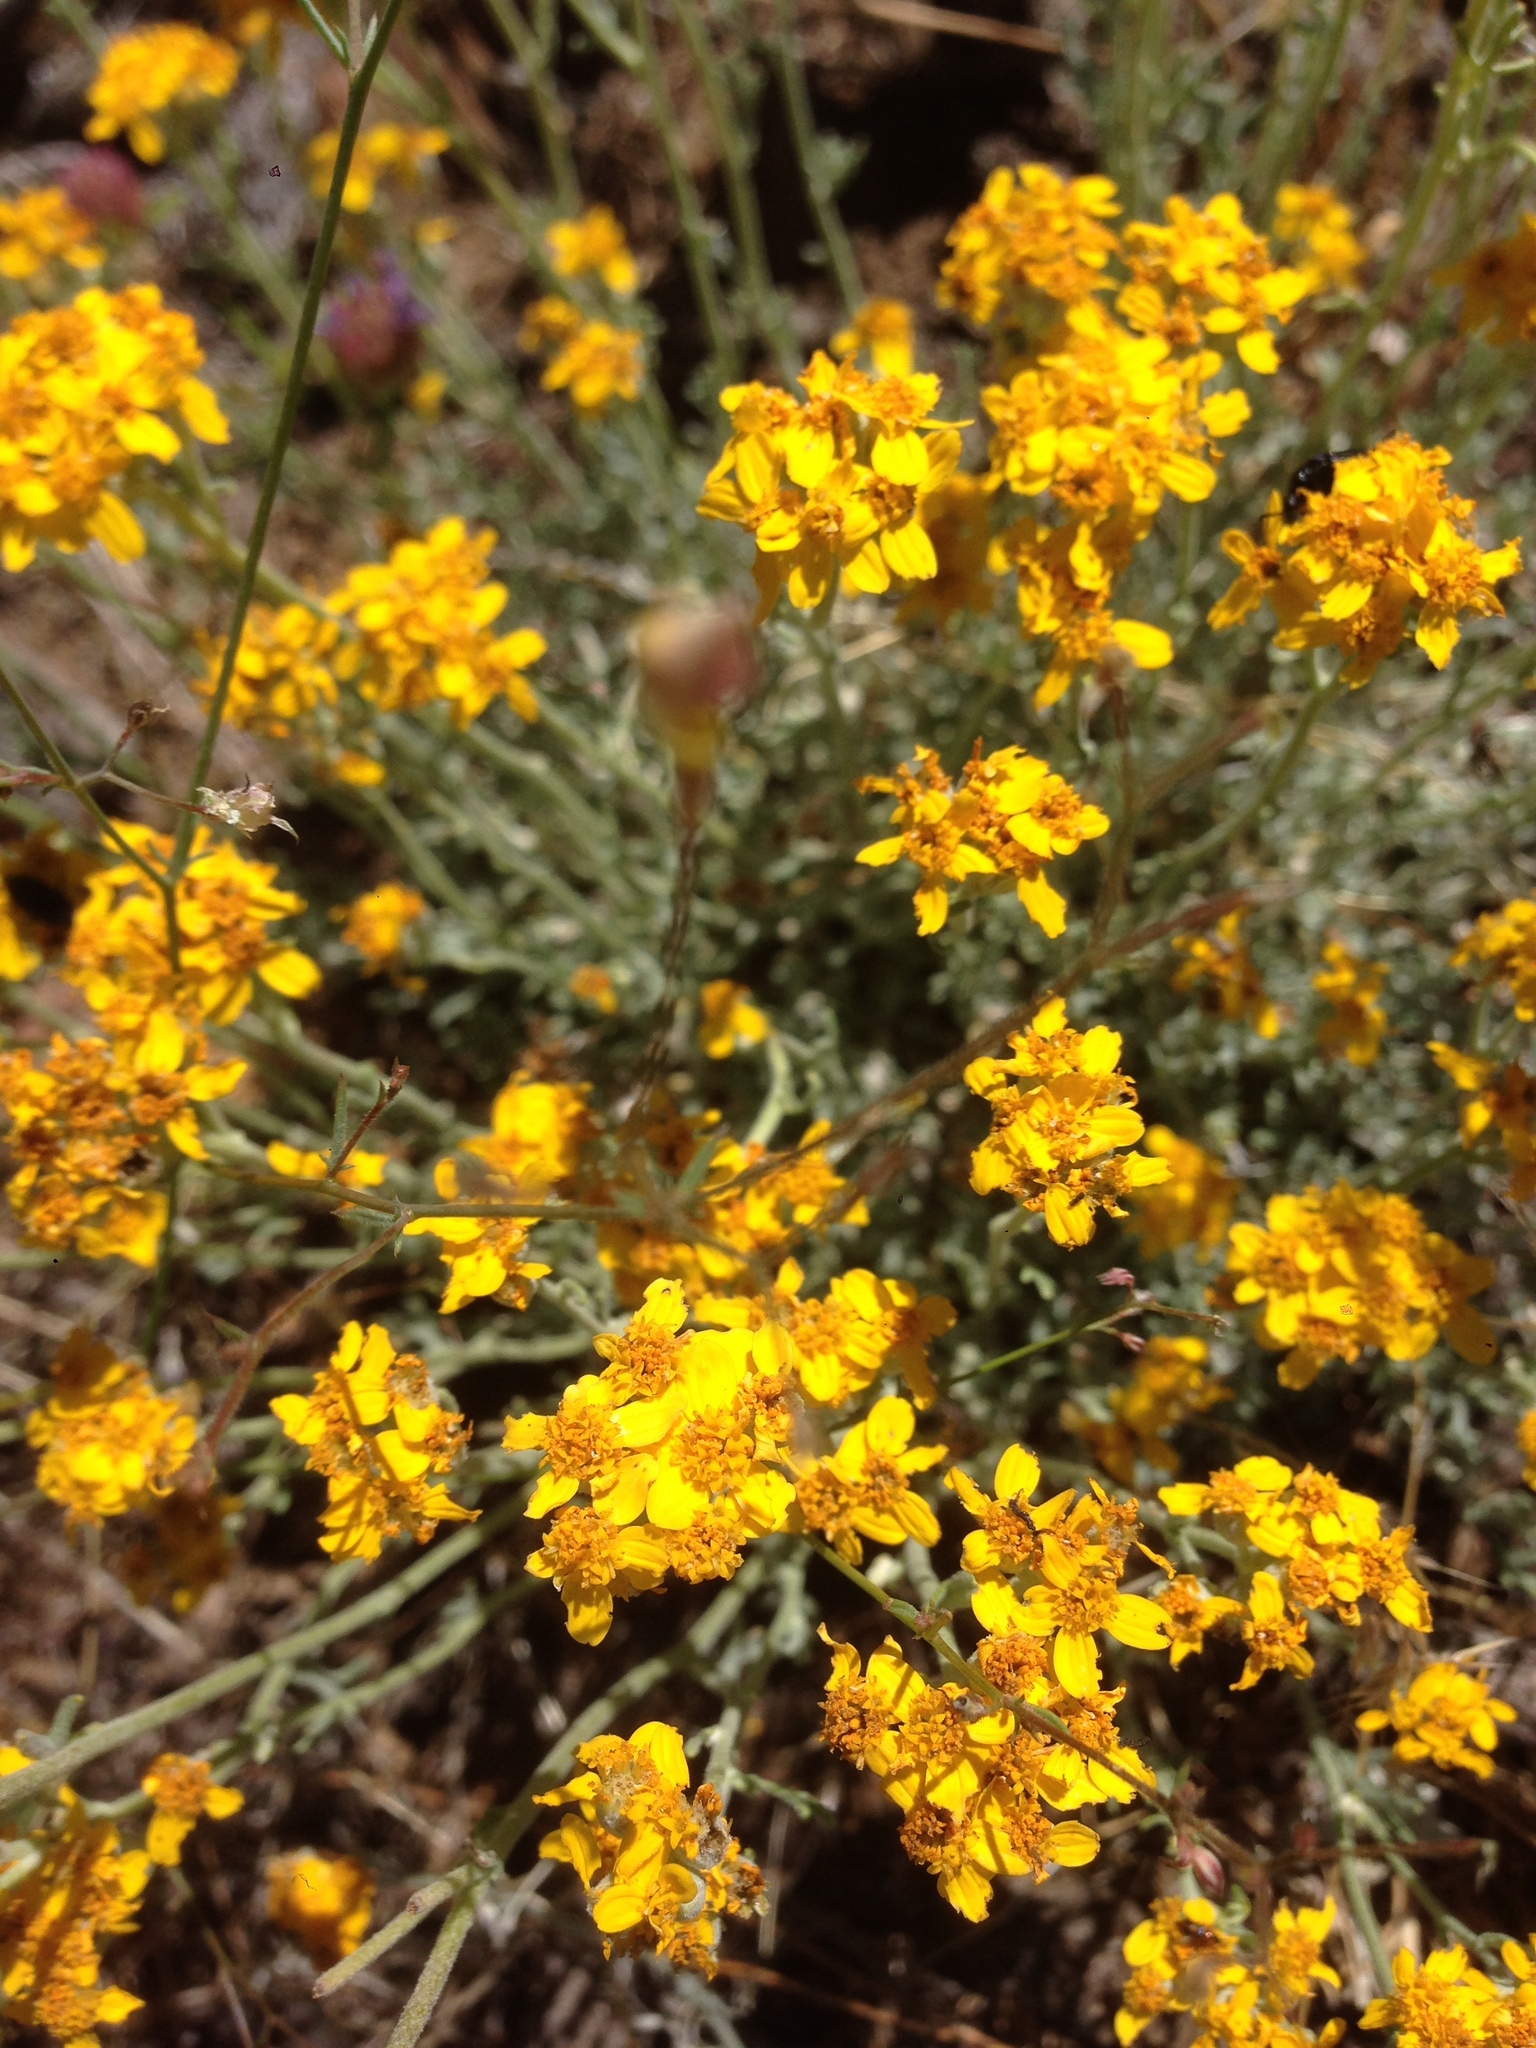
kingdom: Plantae
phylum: Tracheophyta
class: Magnoliopsida
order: Asterales
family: Asteraceae
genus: Eriophyllum
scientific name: Eriophyllum confertiflorum
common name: Golden-yarrow
